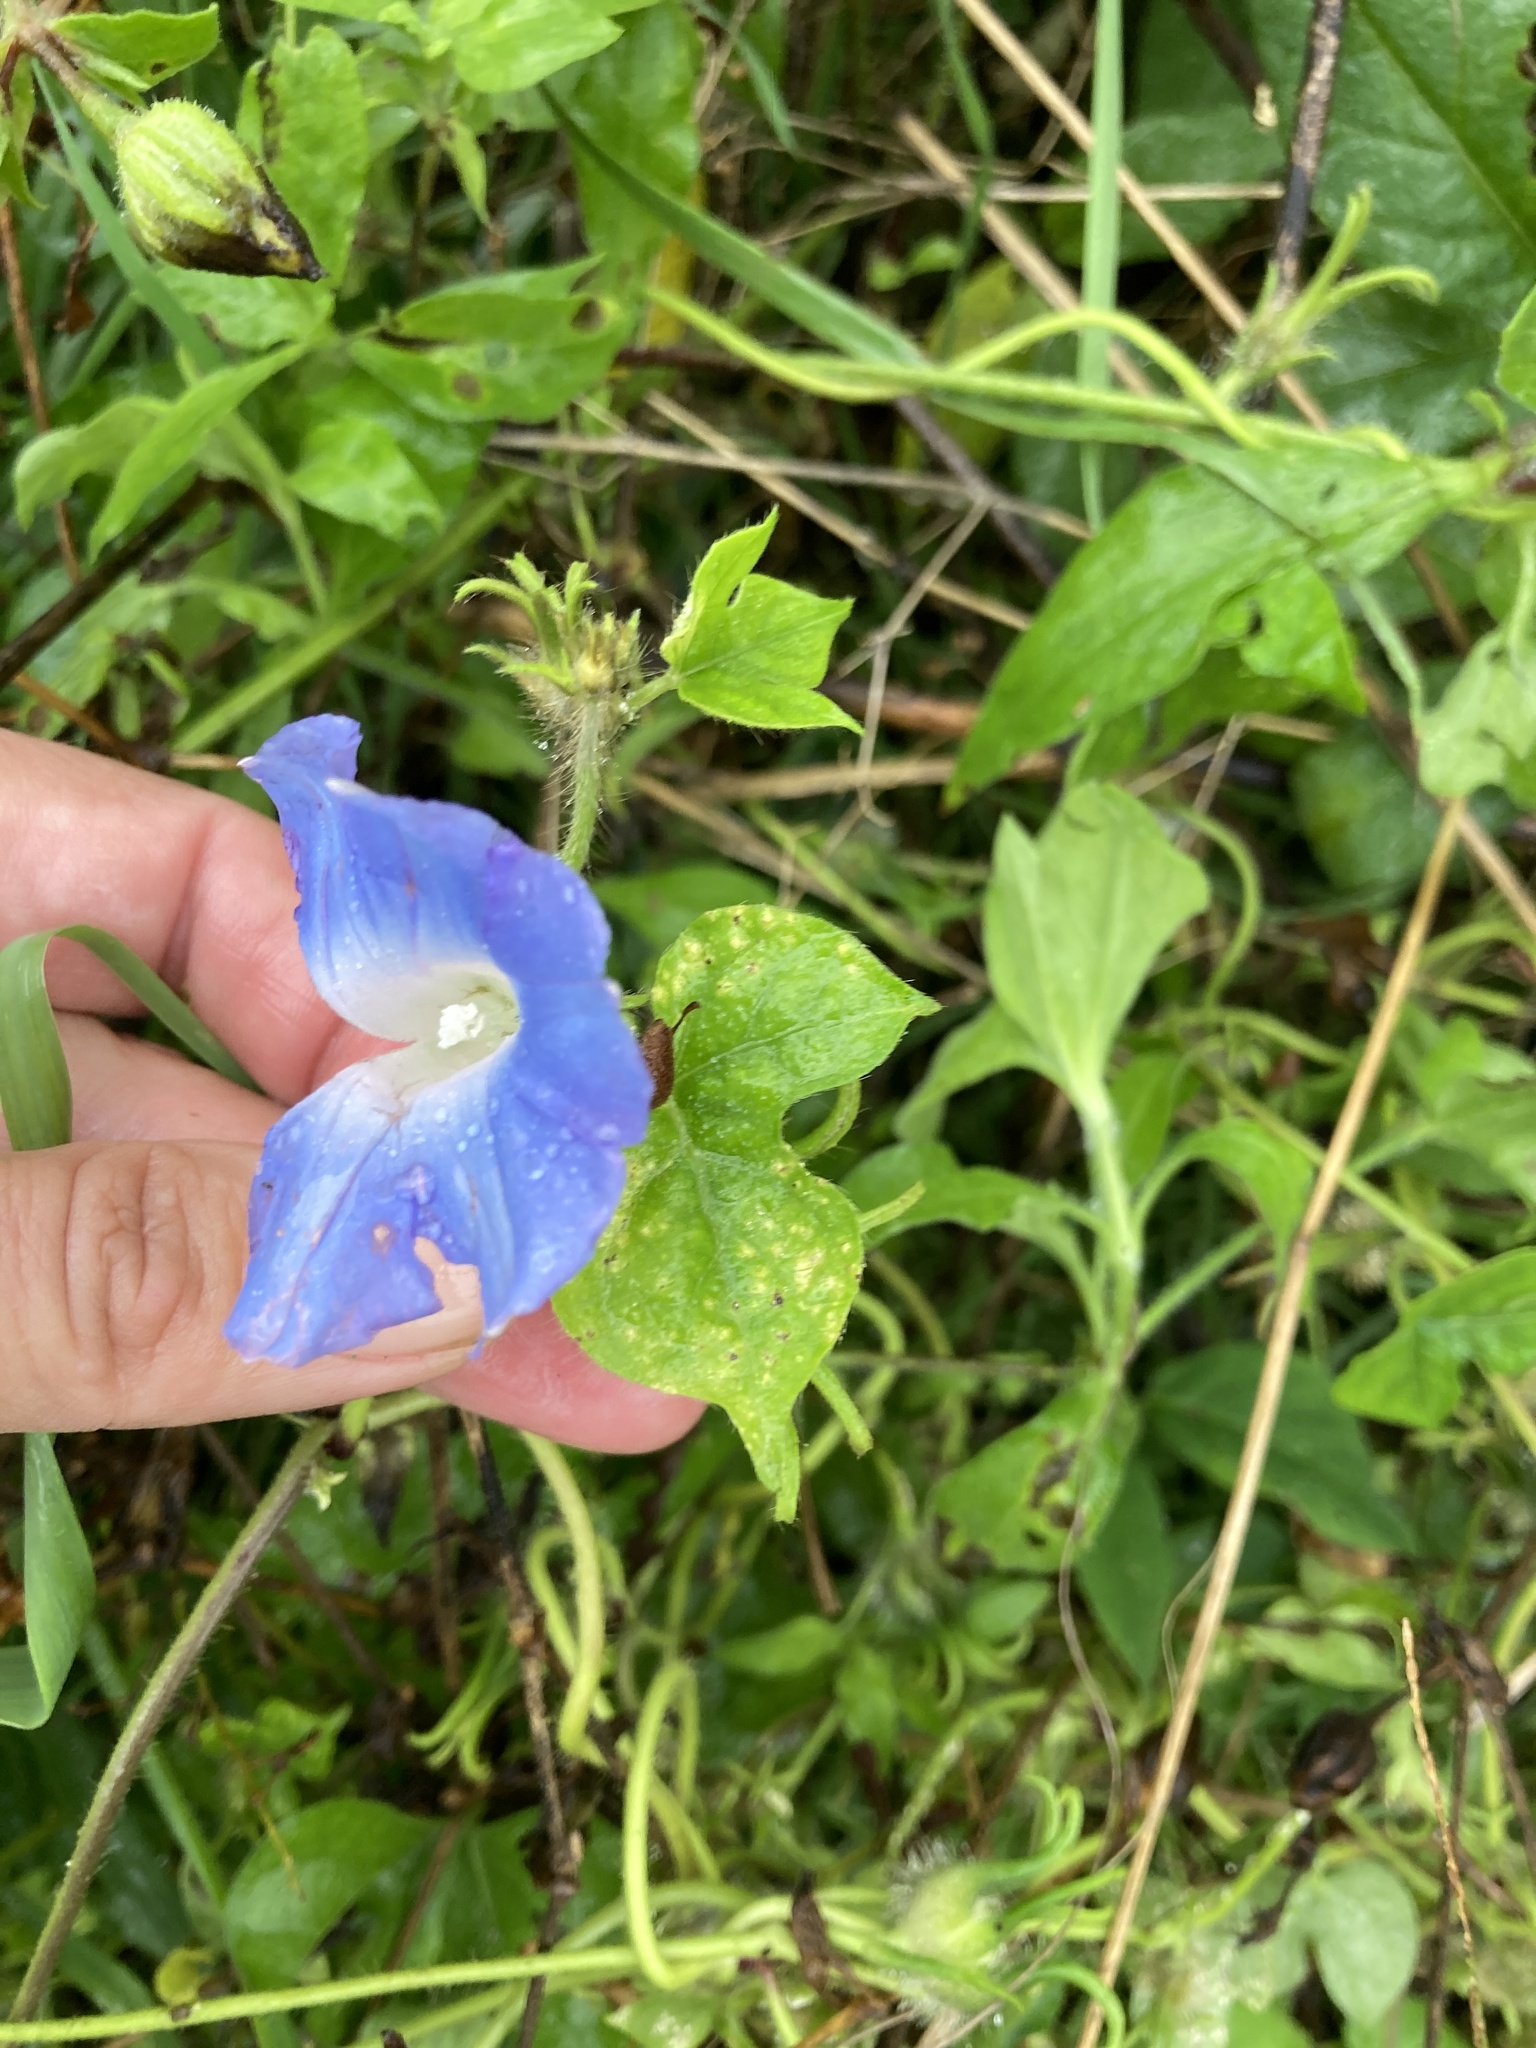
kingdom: Plantae
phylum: Tracheophyta
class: Magnoliopsida
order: Solanales
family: Convolvulaceae
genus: Ipomoea
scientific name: Ipomoea hederacea
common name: Ivy-leaved morning-glory
